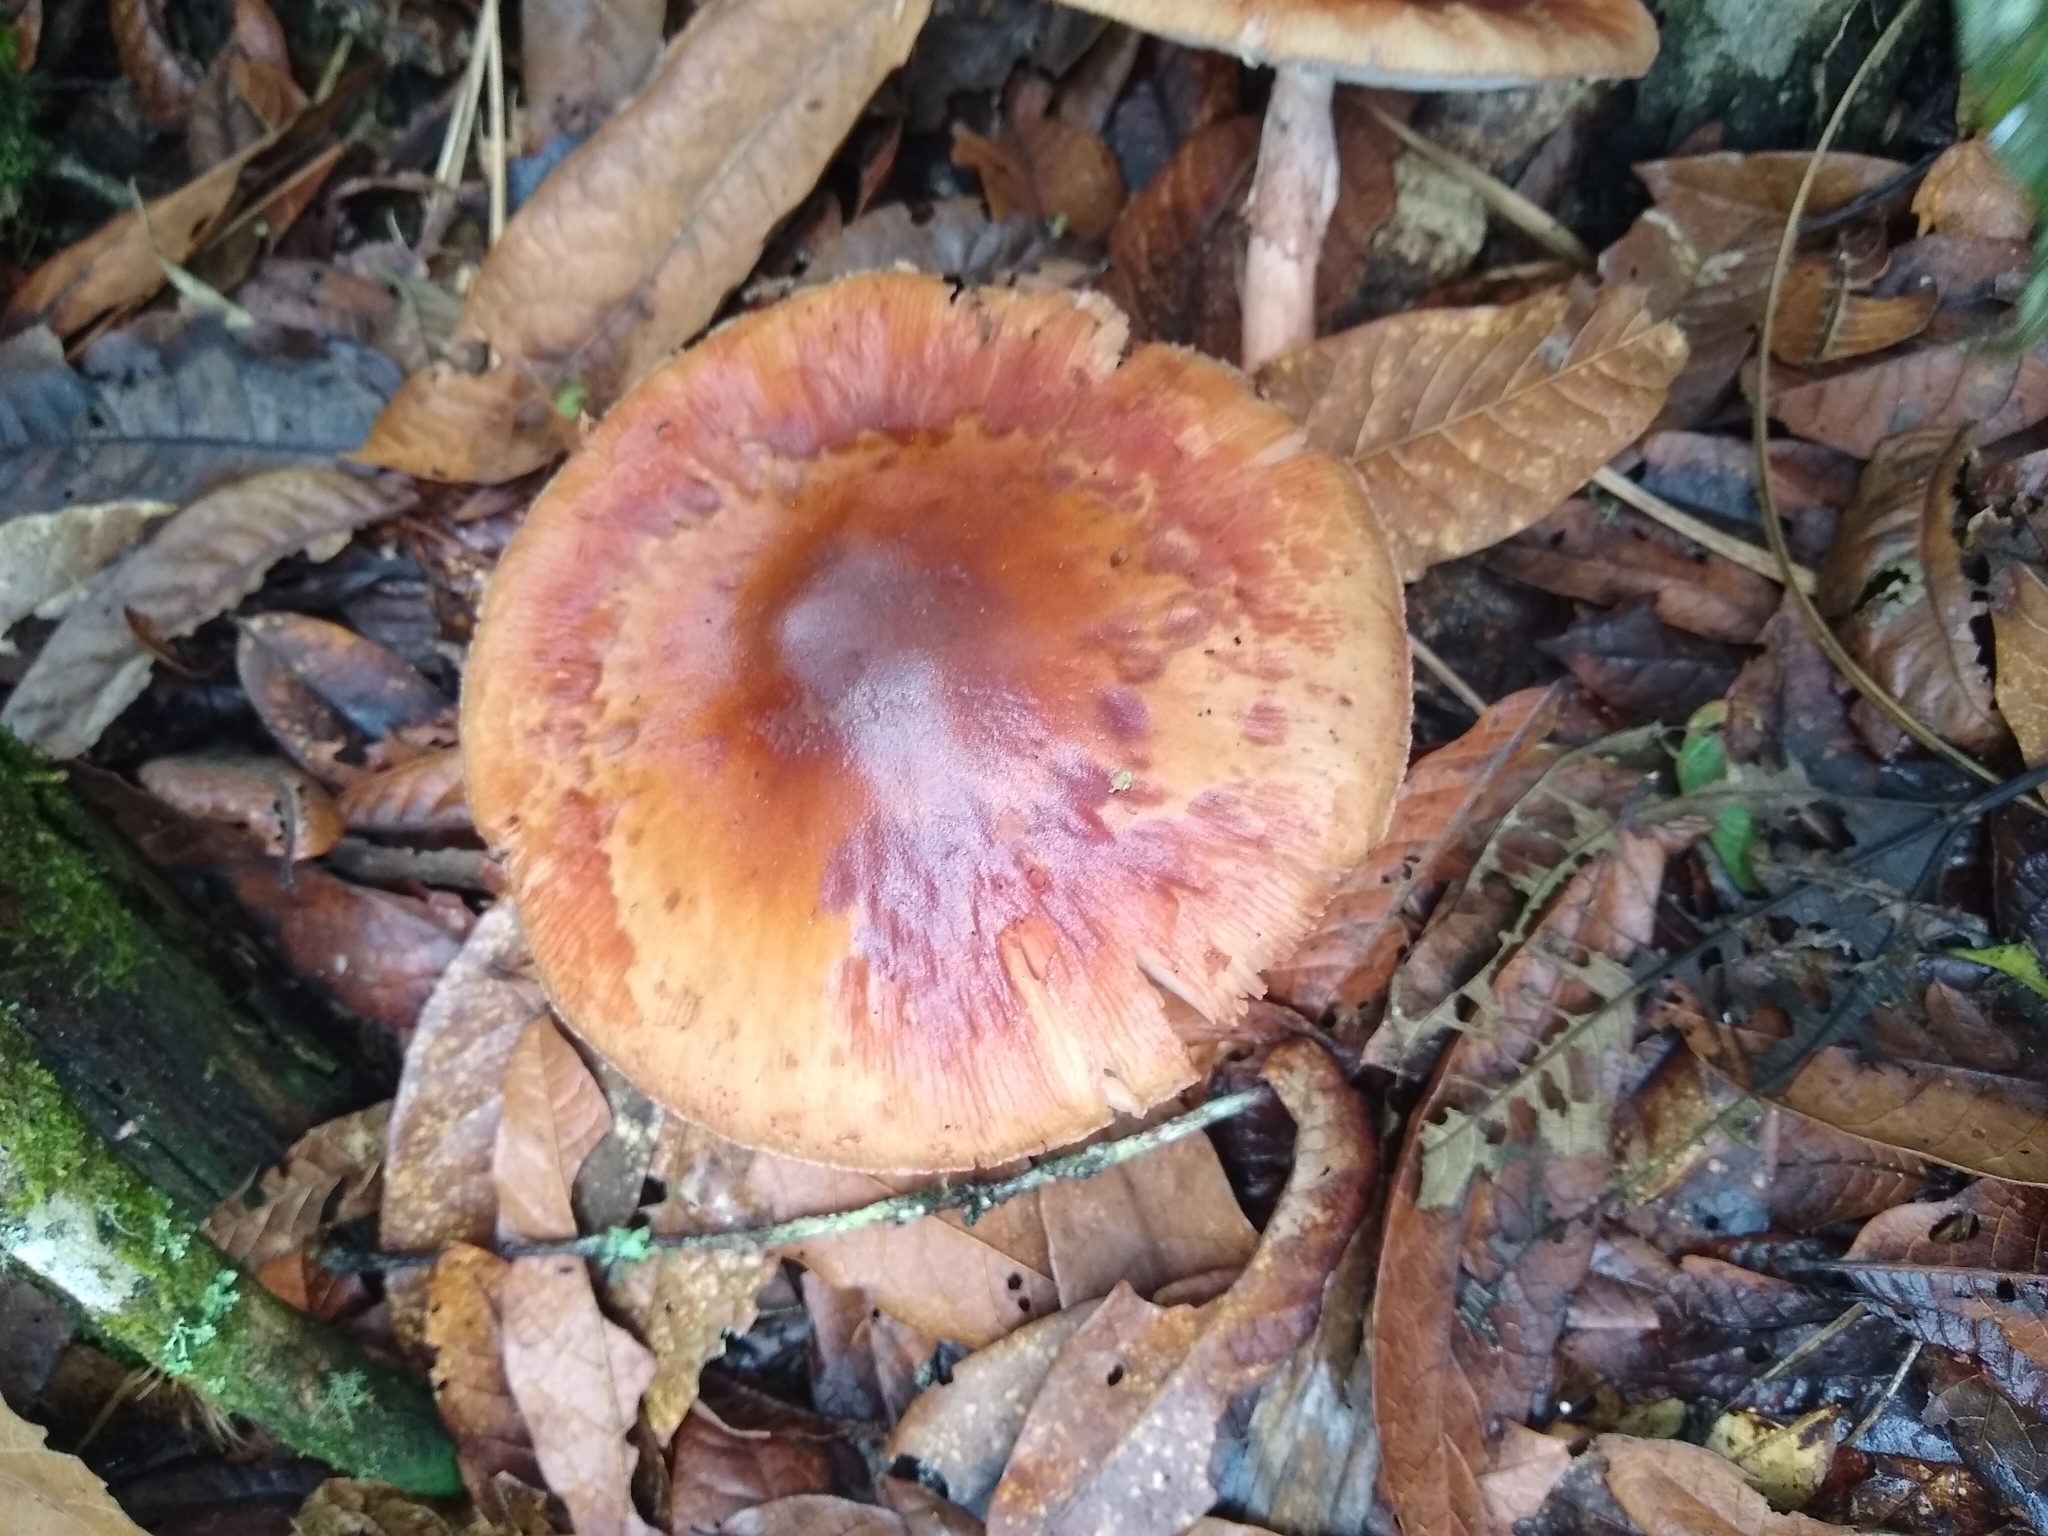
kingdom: Fungi
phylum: Basidiomycota
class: Agaricomycetes
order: Agaricales
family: Amanitaceae
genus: Amanita
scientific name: Amanita brunneolocularis
